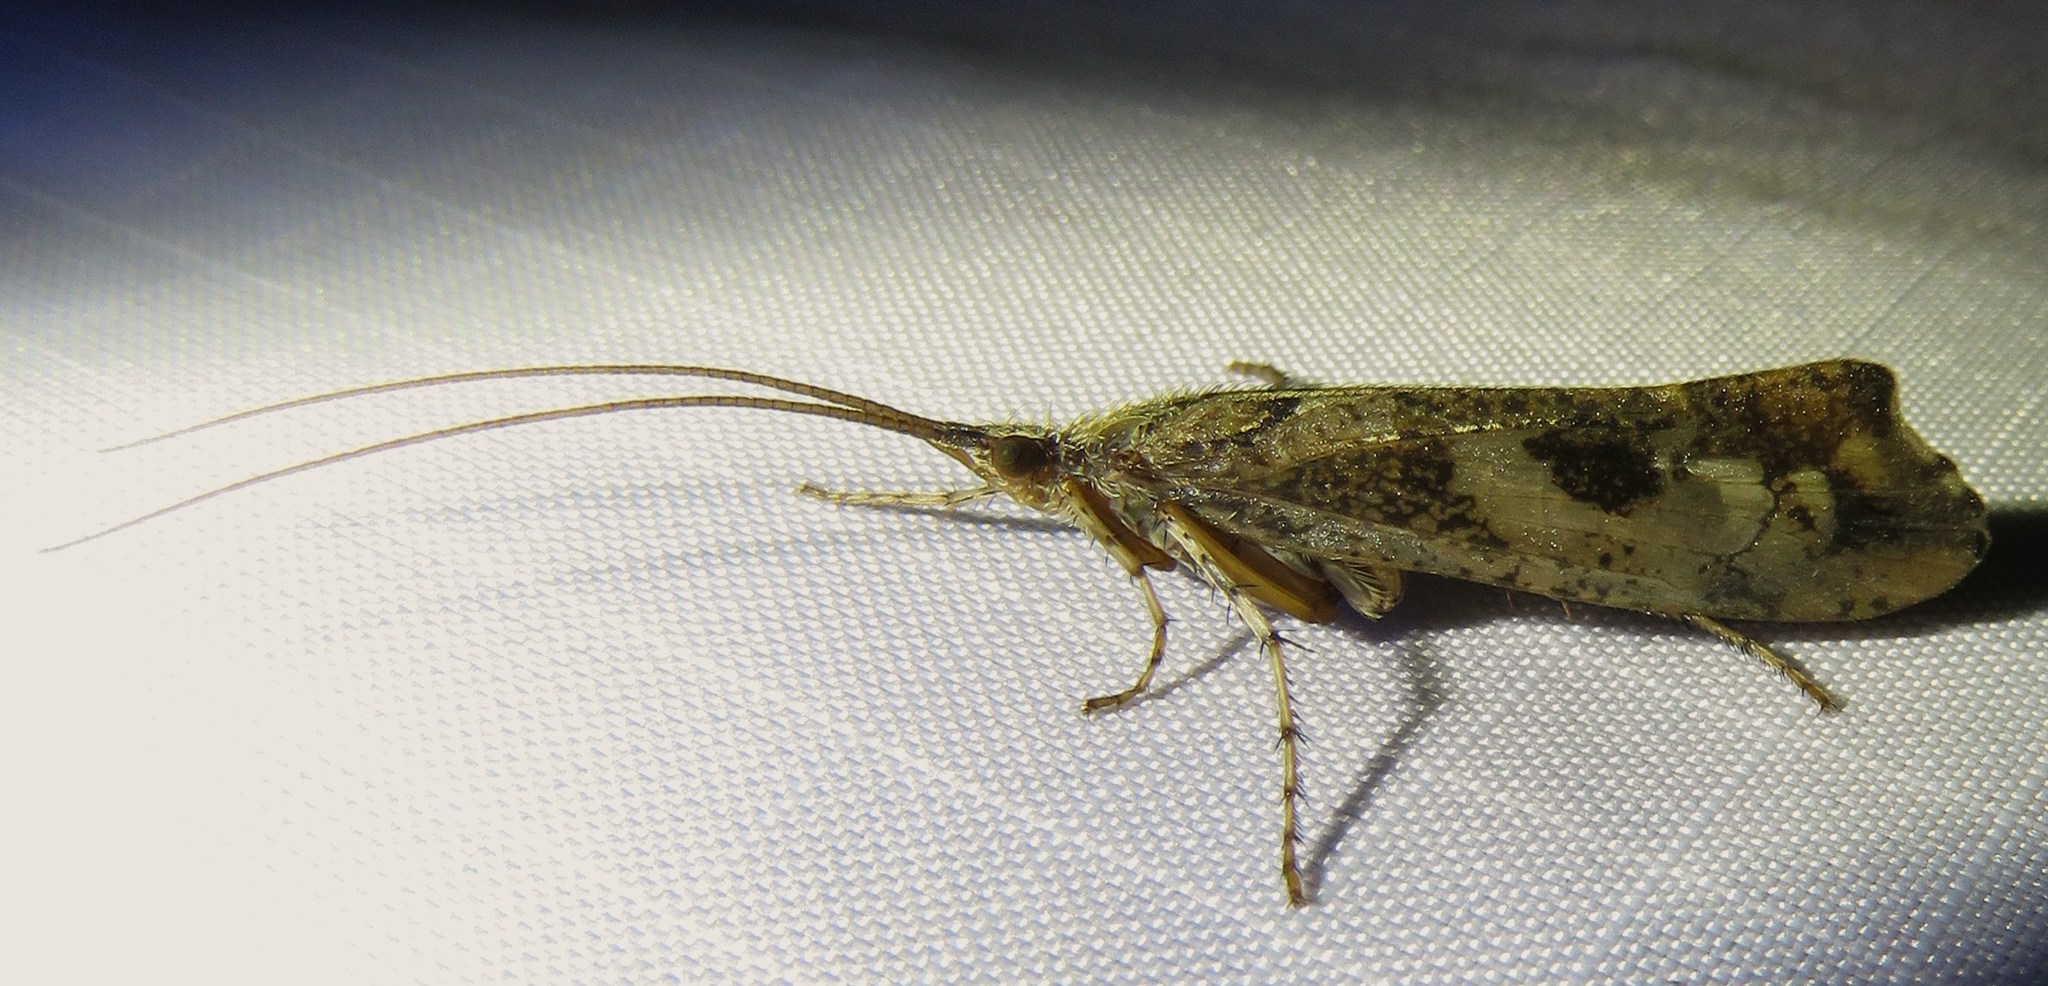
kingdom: Animalia
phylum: Arthropoda
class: Insecta
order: Trichoptera
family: Limnephilidae
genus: Glyphotaelius
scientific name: Glyphotaelius pellucidus
